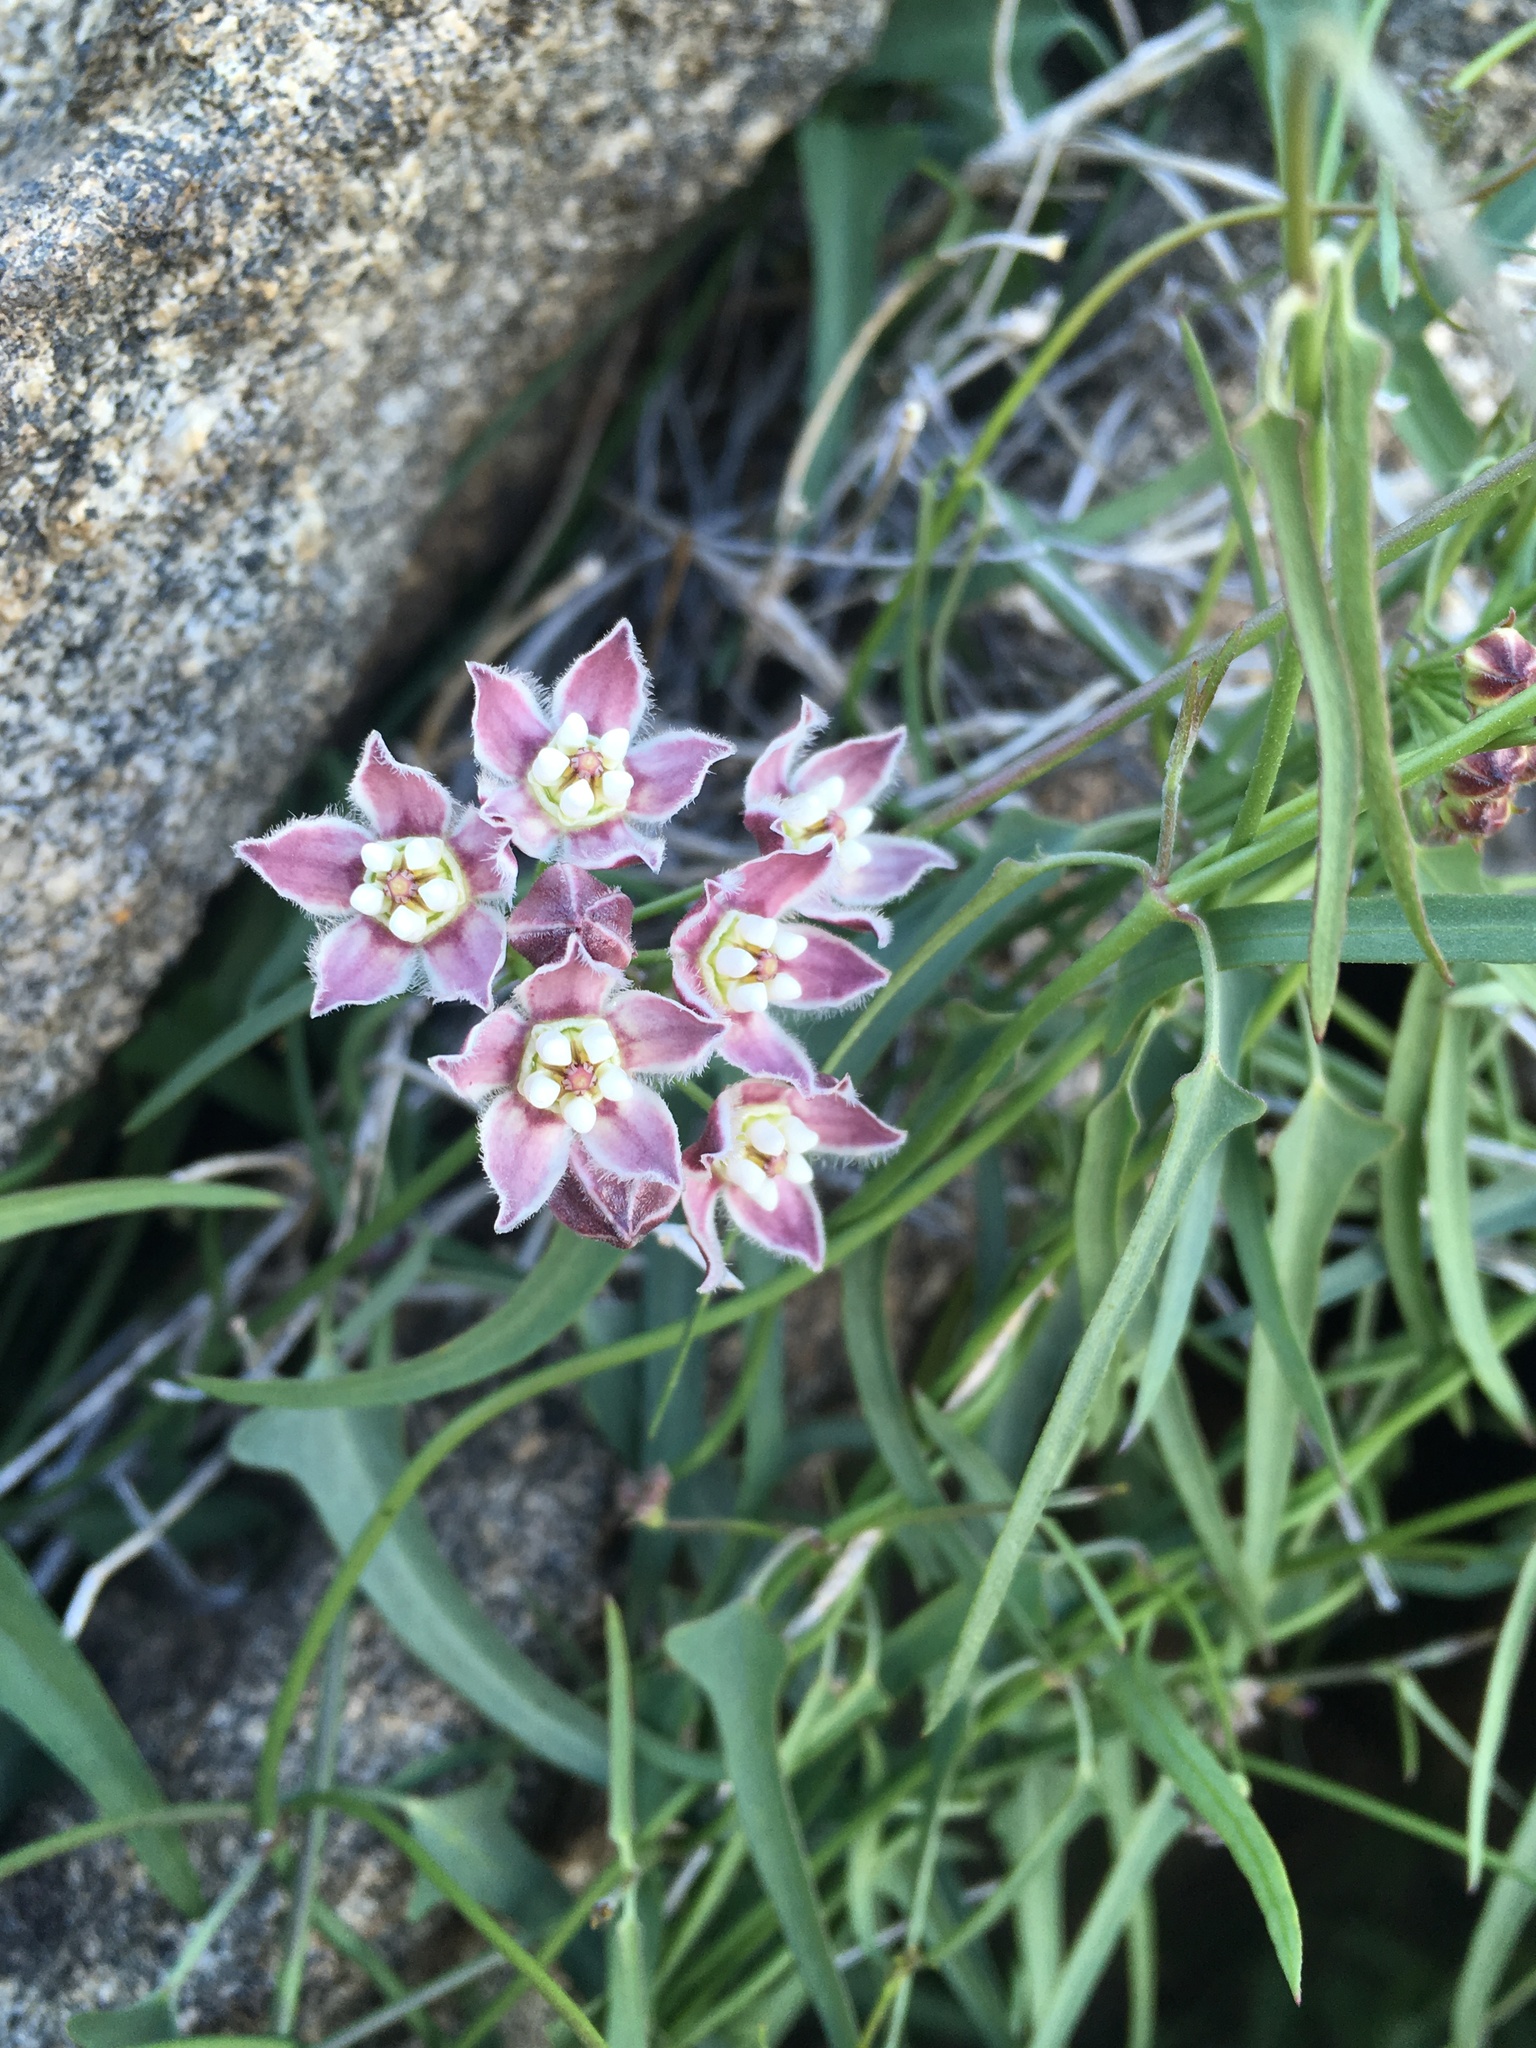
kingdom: Plantae
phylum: Tracheophyta
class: Magnoliopsida
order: Gentianales
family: Apocynaceae
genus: Funastrum
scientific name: Funastrum heterophyllum
